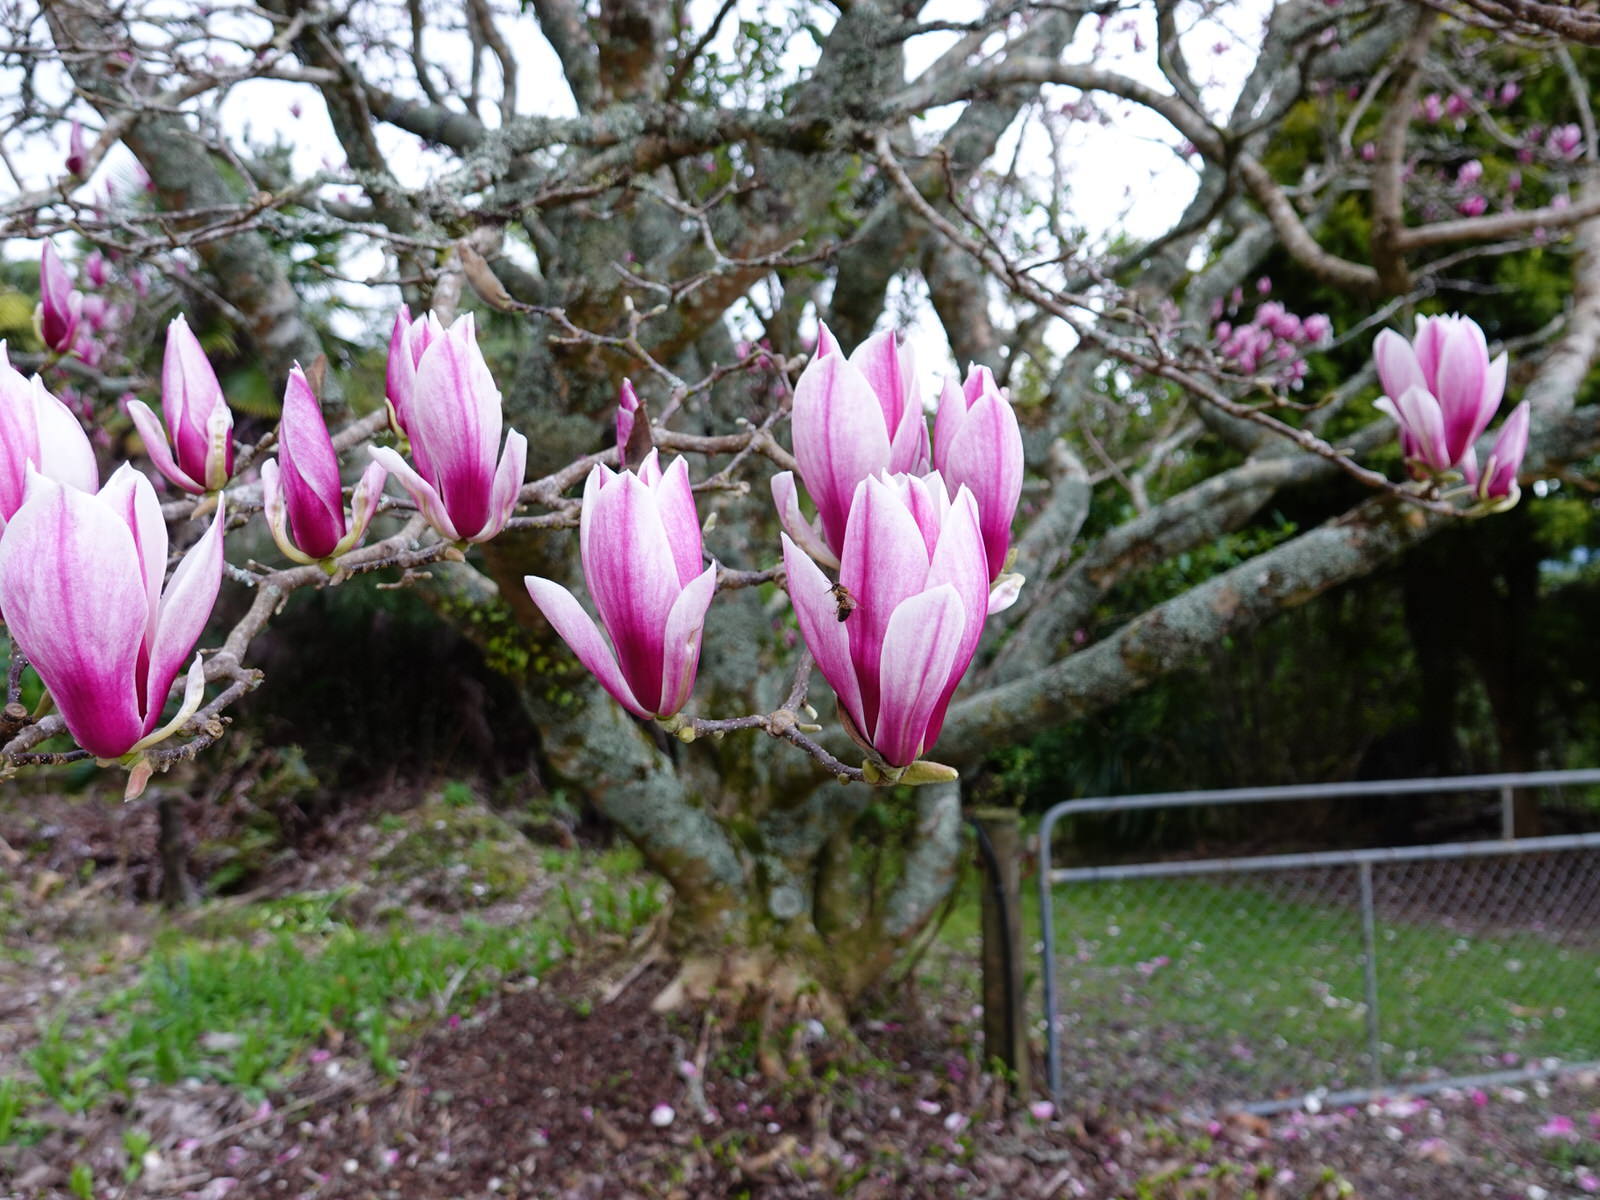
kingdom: Animalia
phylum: Arthropoda
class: Insecta
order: Hymenoptera
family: Apidae
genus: Apis
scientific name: Apis mellifera
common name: Honey bee
